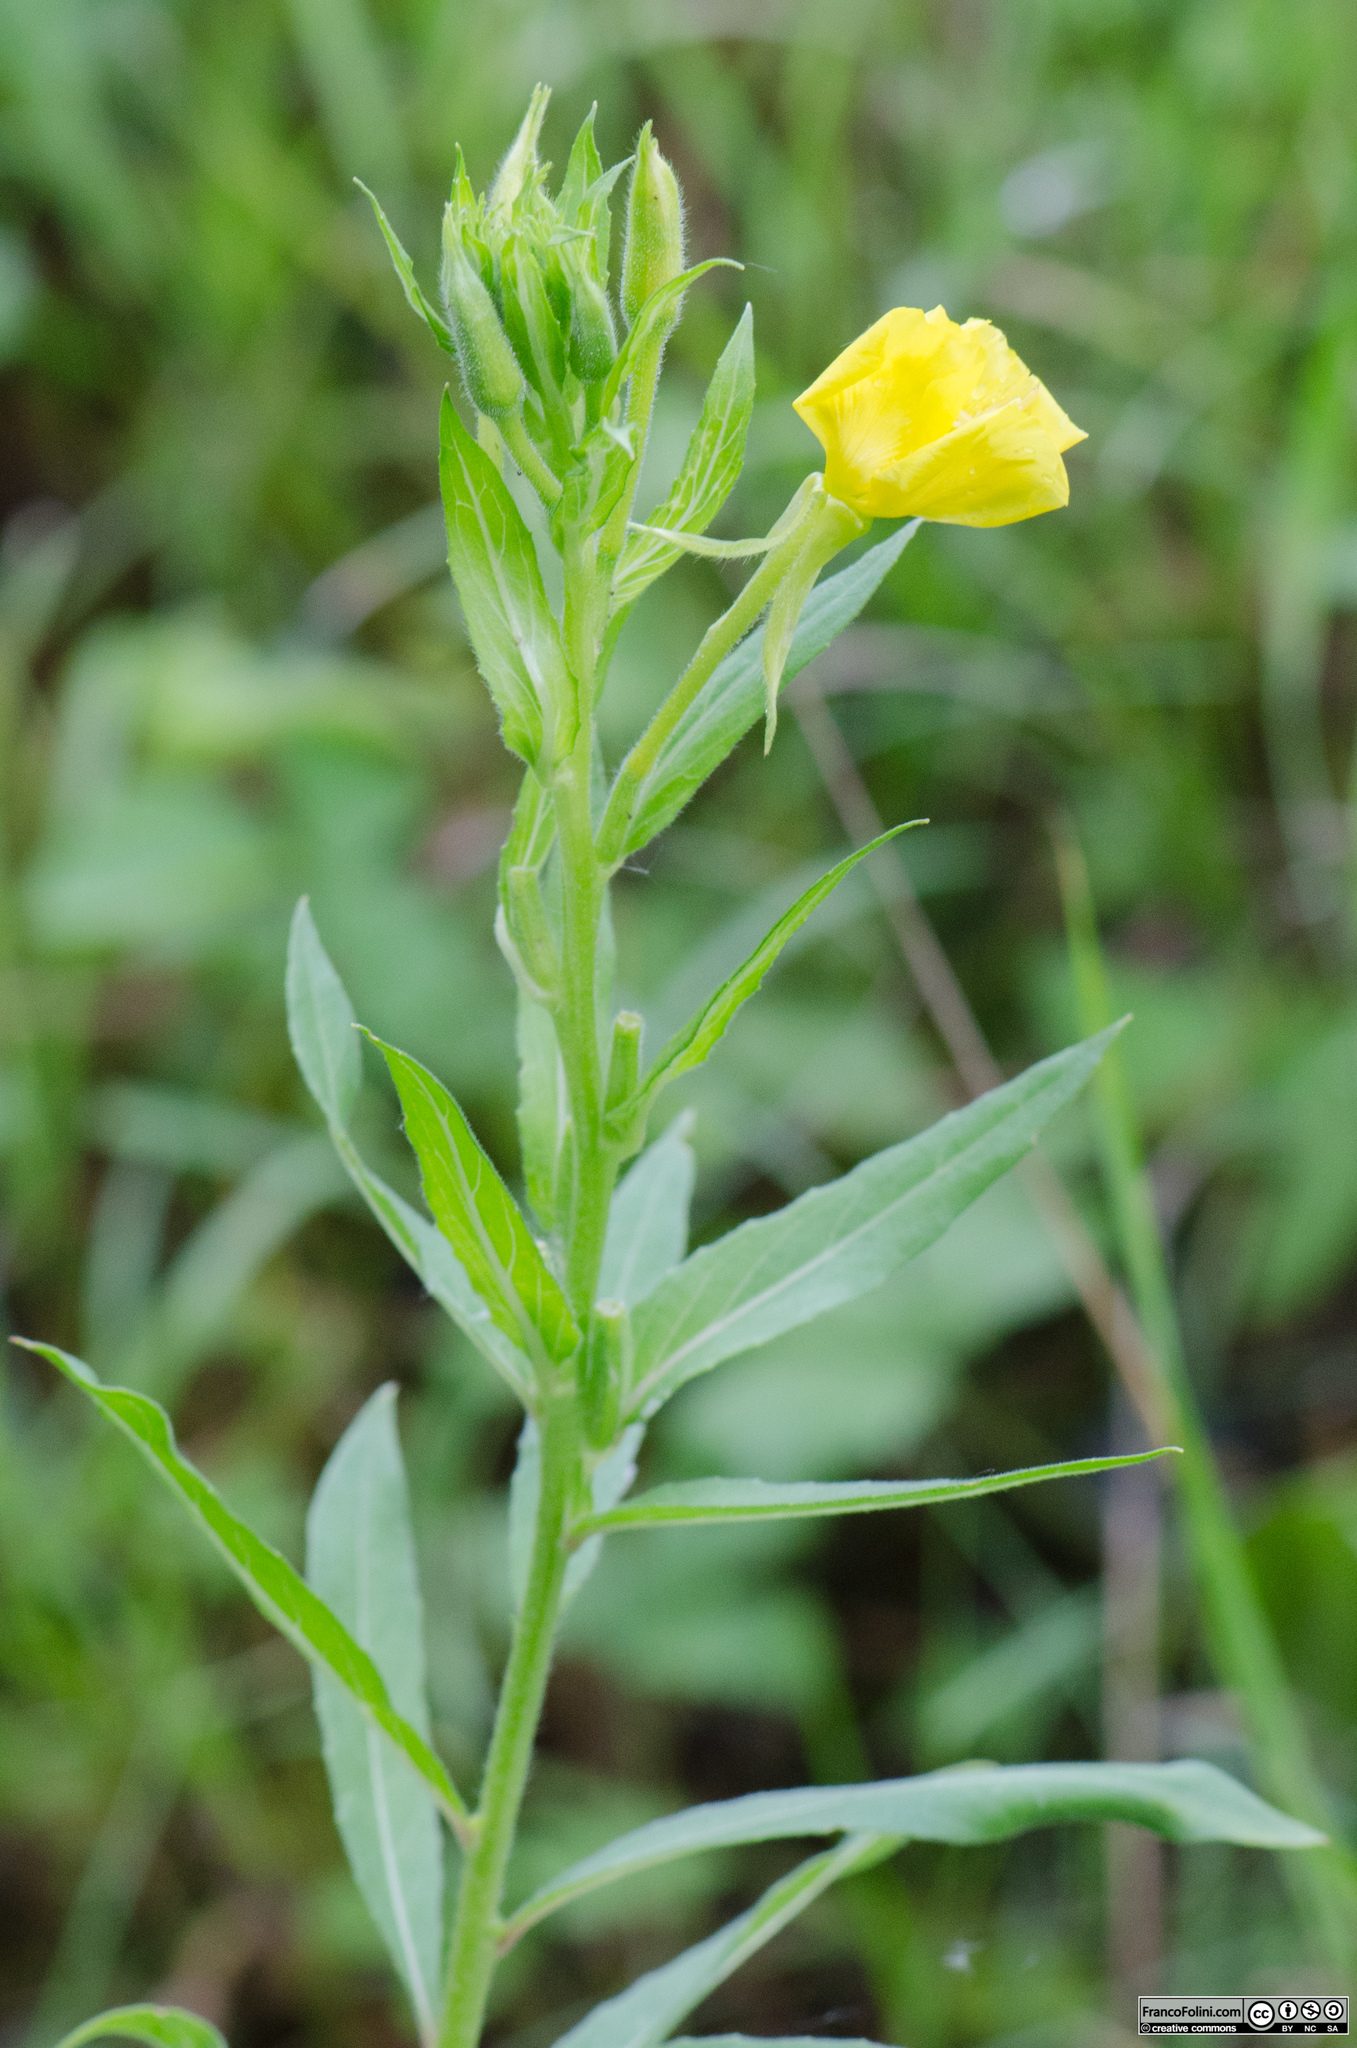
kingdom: Plantae
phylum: Tracheophyta
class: Magnoliopsida
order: Myrtales
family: Onagraceae
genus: Oenothera
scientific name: Oenothera biennis
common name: Common evening-primrose
